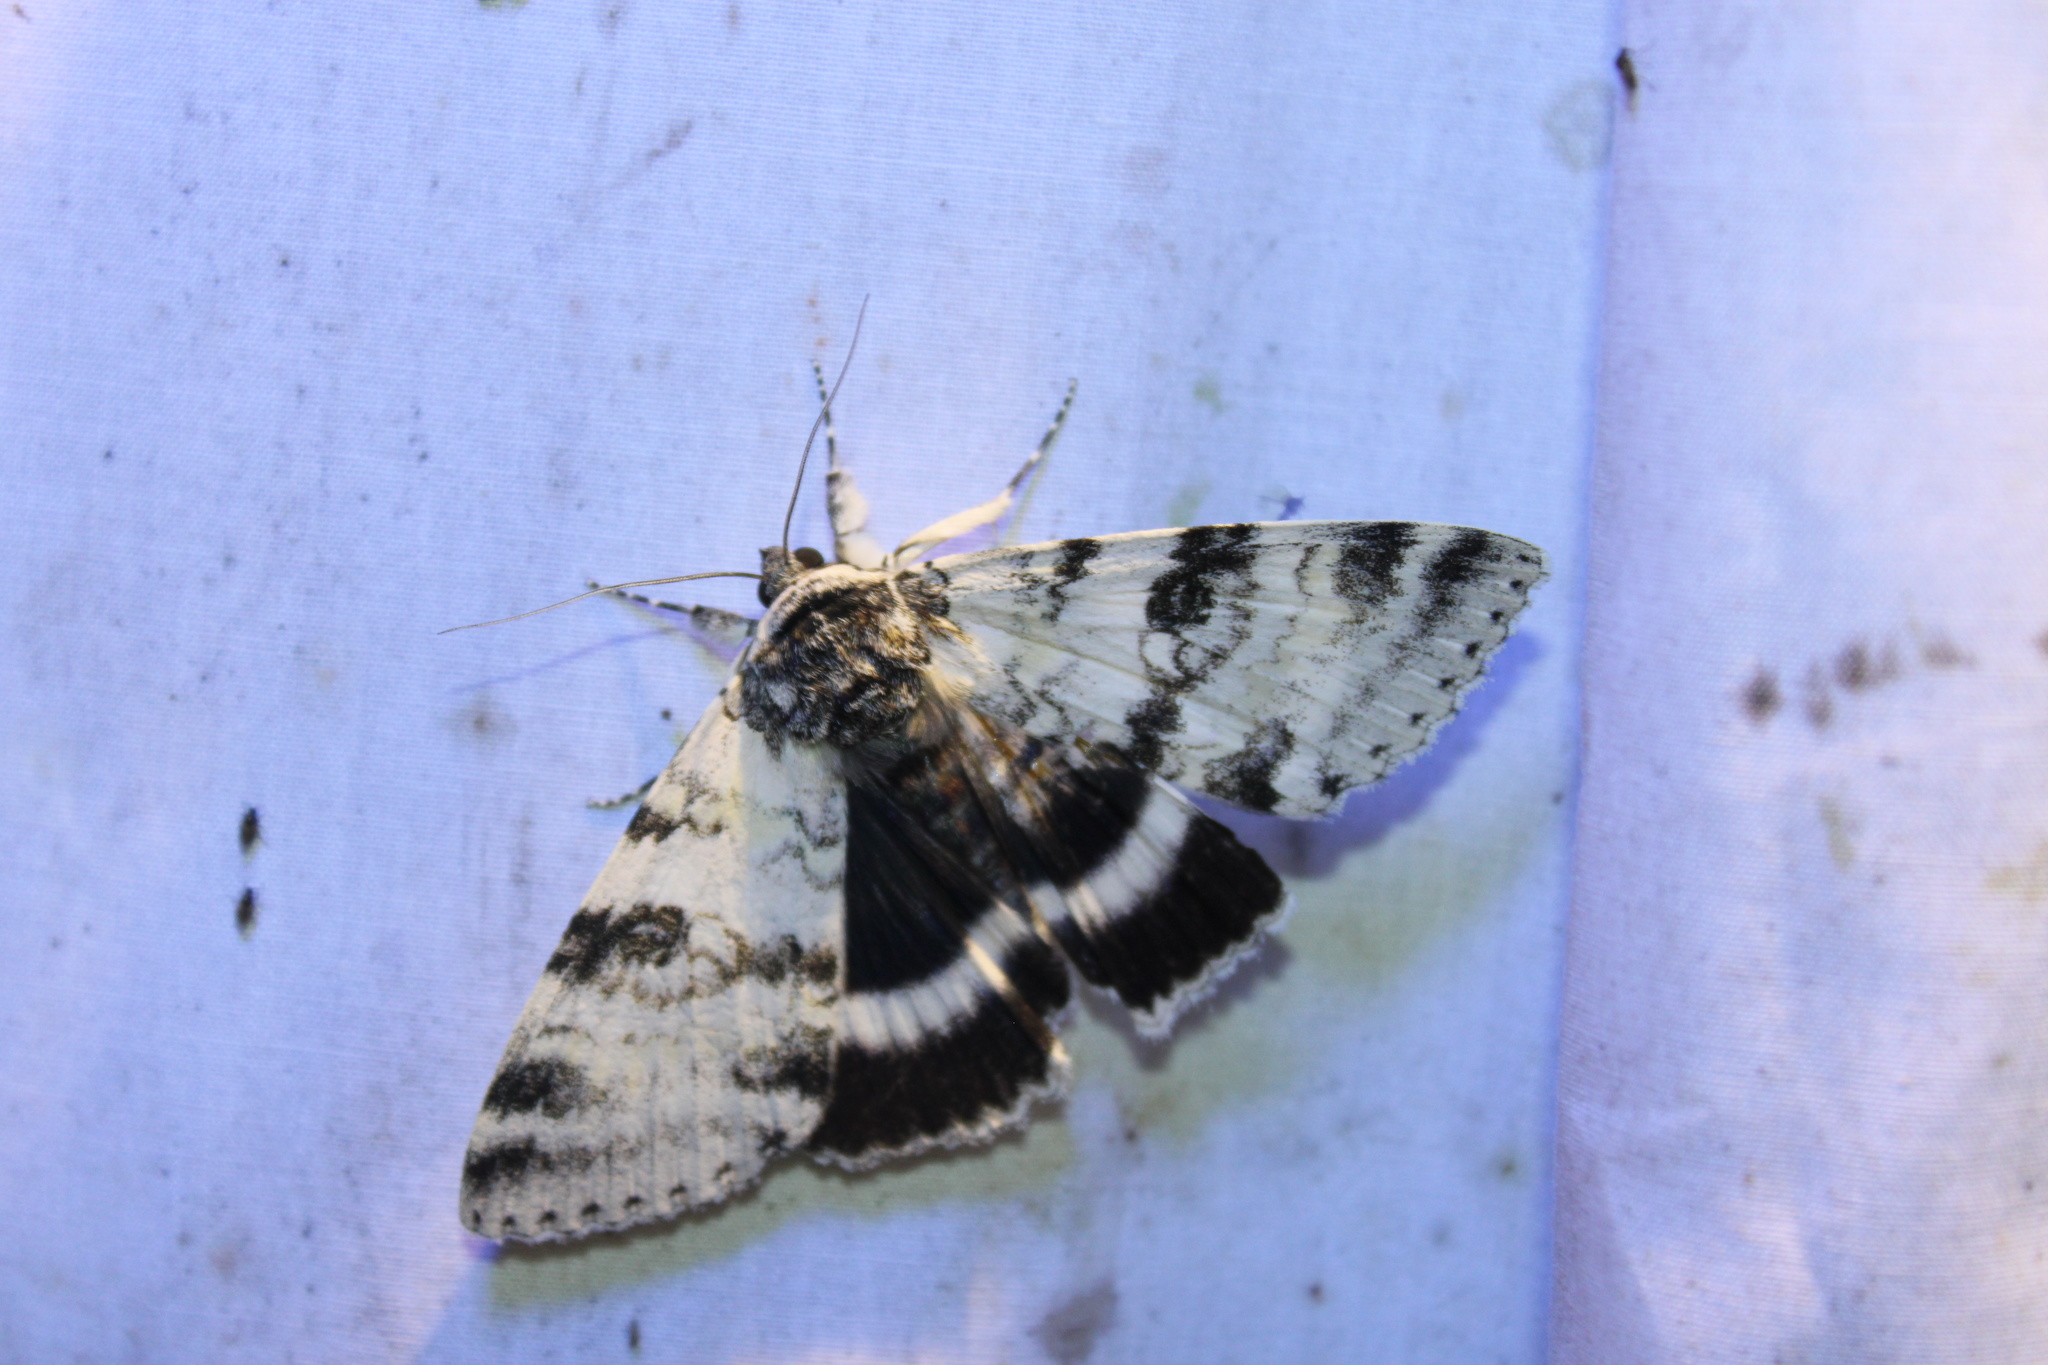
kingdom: Animalia
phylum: Arthropoda
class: Insecta
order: Lepidoptera
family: Erebidae
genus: Catocala
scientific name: Catocala relicta
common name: White underwing
